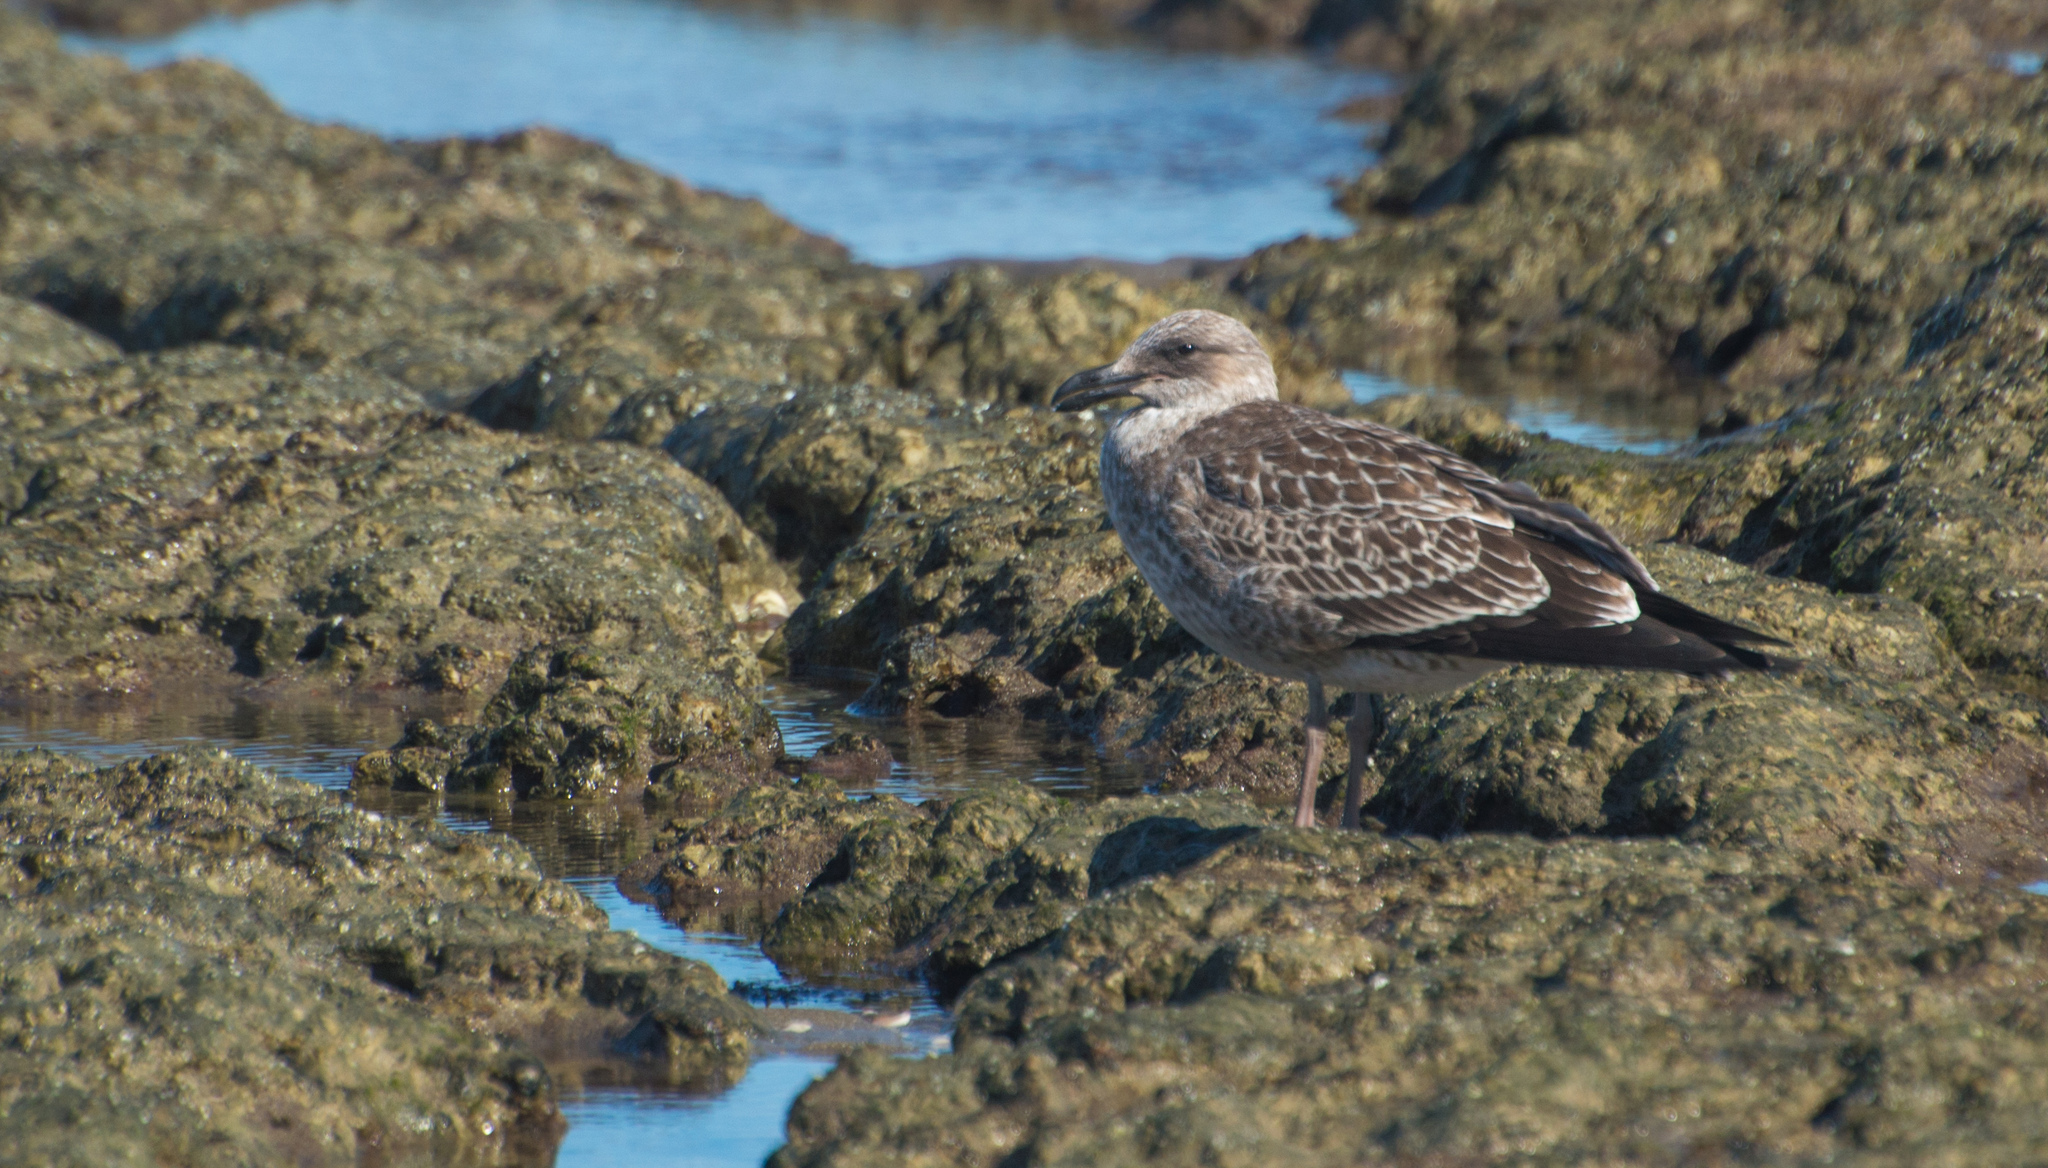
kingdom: Animalia
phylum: Chordata
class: Aves
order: Charadriiformes
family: Laridae
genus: Larus
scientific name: Larus dominicanus
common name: Kelp gull
